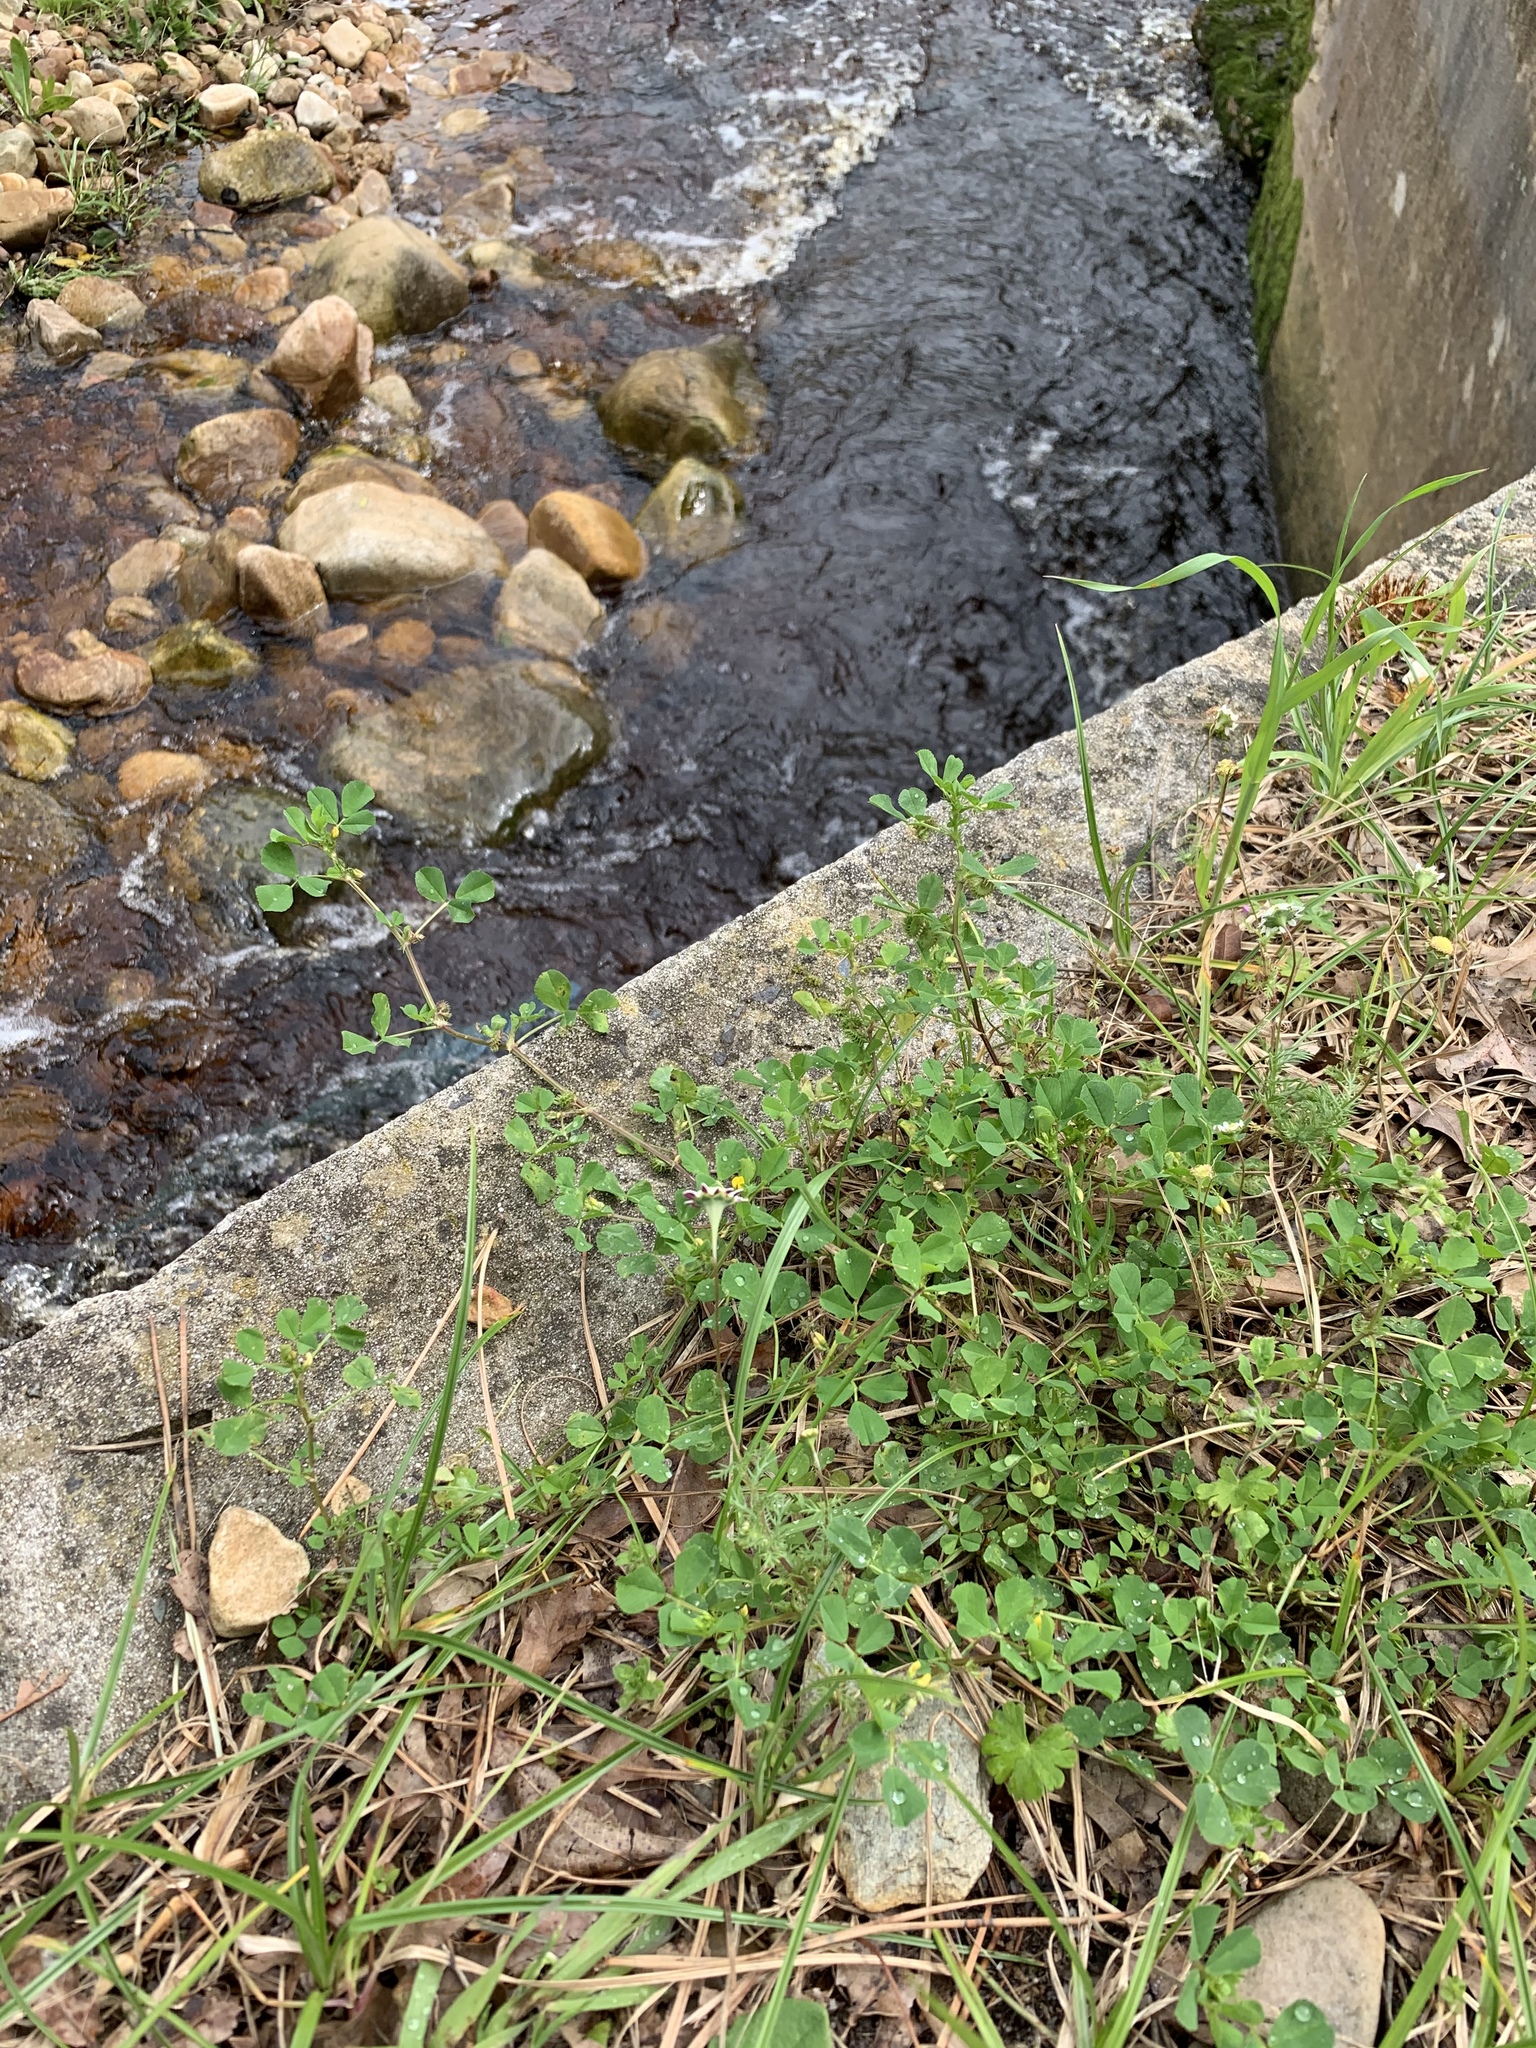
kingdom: Plantae
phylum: Tracheophyta
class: Magnoliopsida
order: Fabales
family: Fabaceae
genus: Medicago
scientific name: Medicago polymorpha
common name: Burclover
